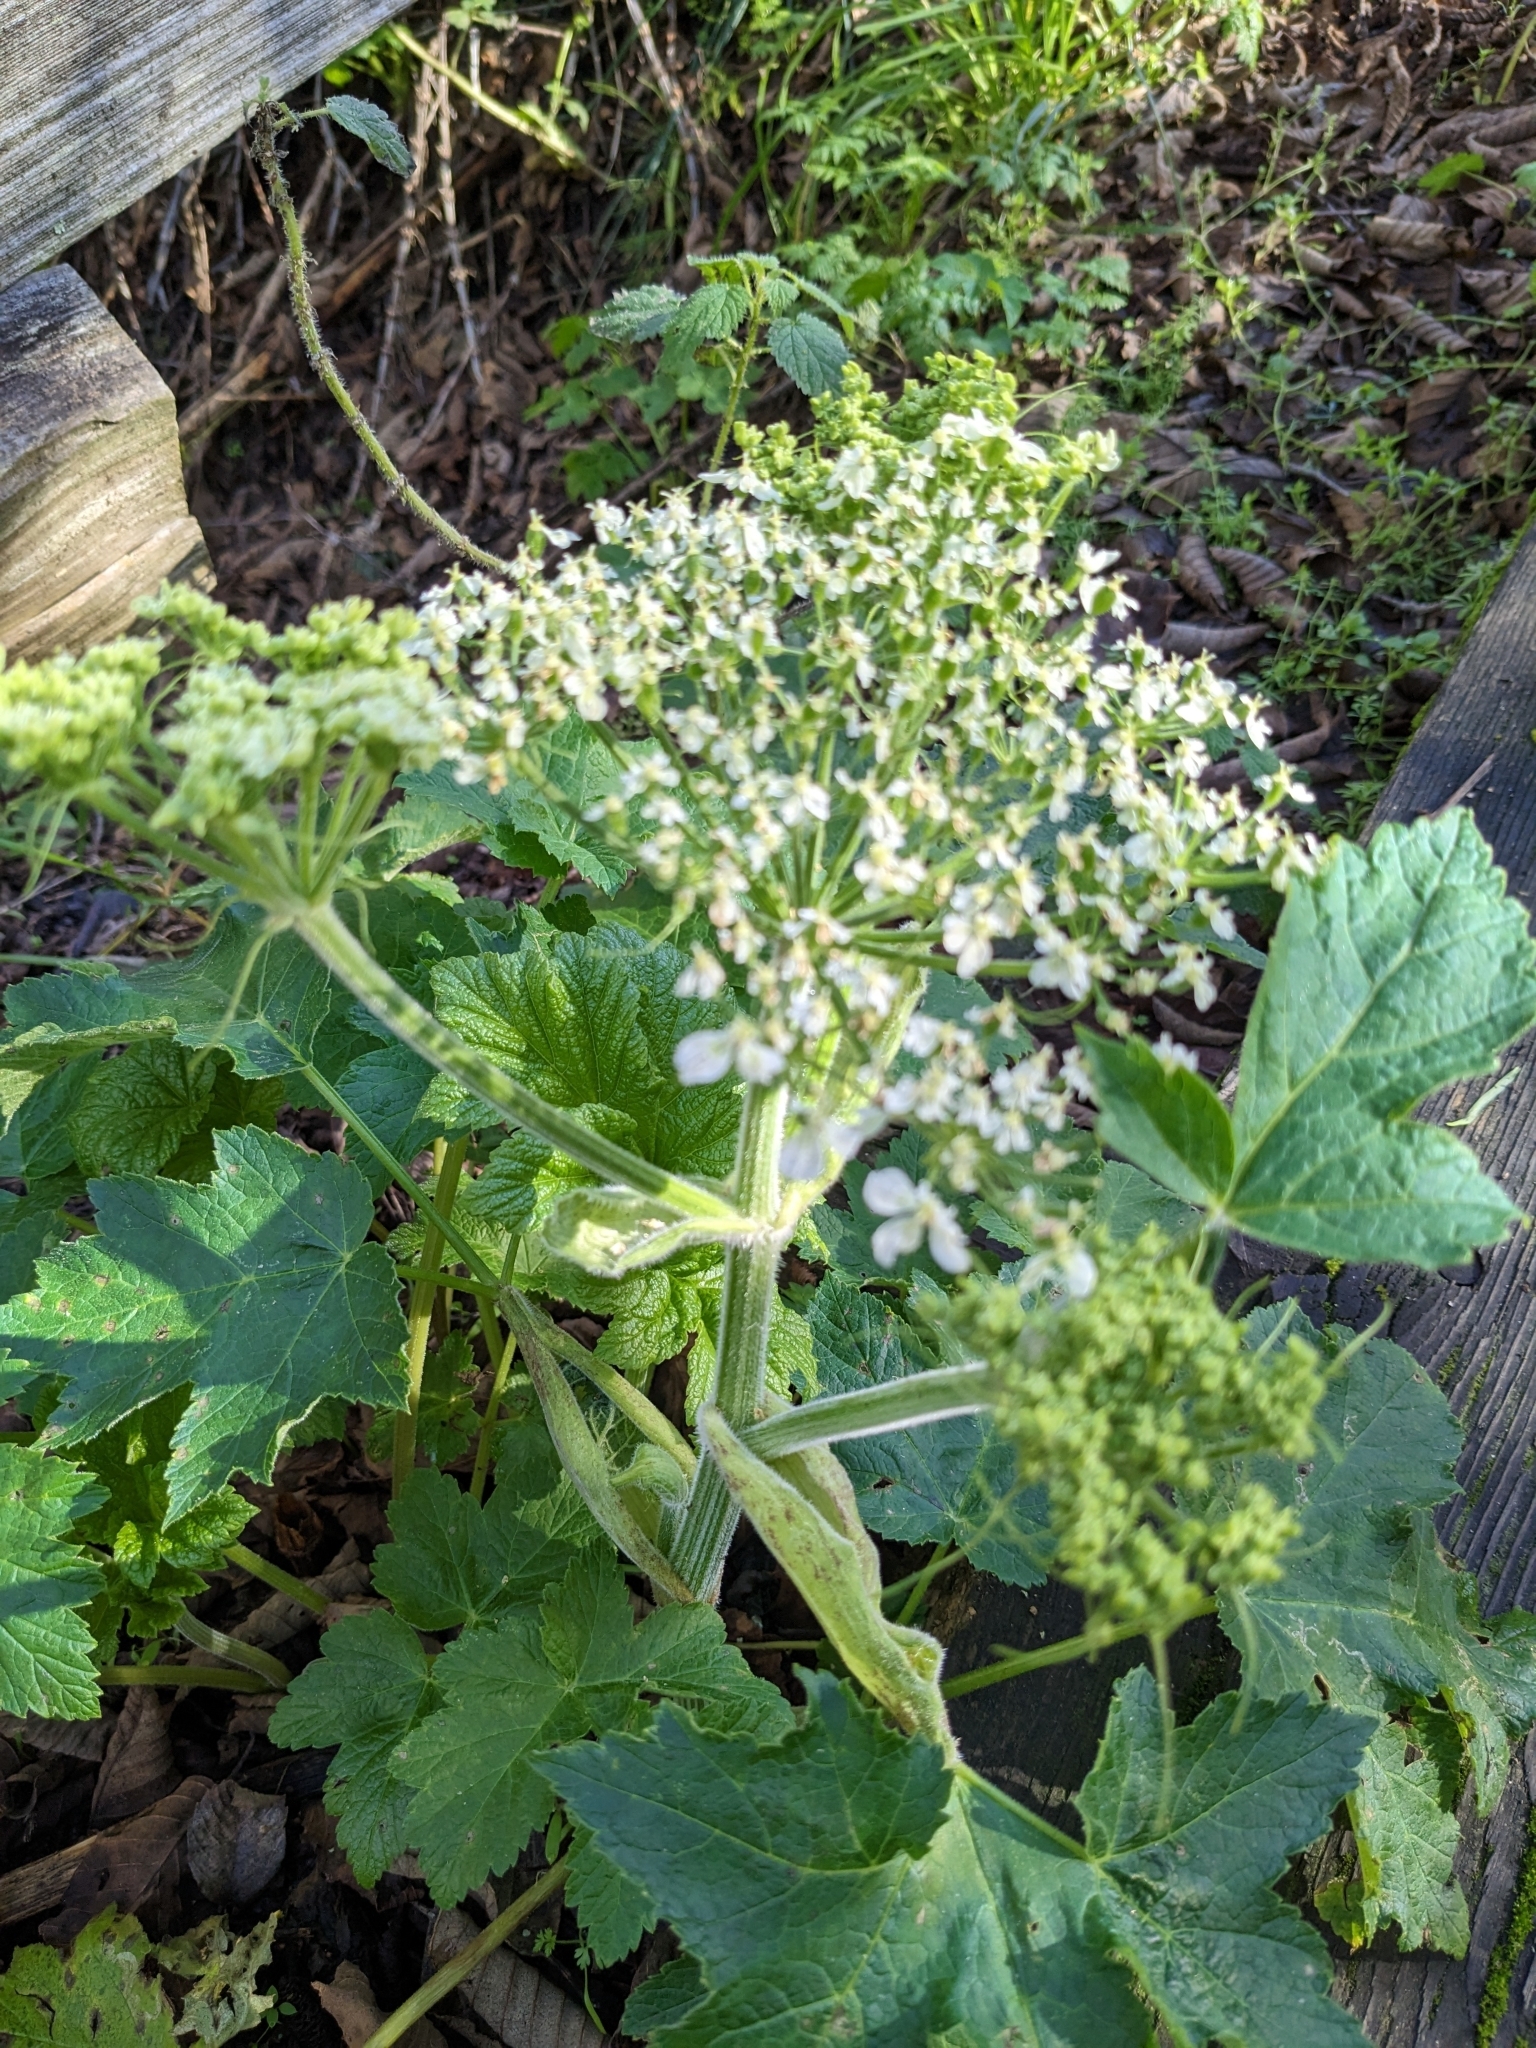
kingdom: Plantae
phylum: Tracheophyta
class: Magnoliopsida
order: Apiales
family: Apiaceae
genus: Heracleum
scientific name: Heracleum maximum
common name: American cow parsnip
